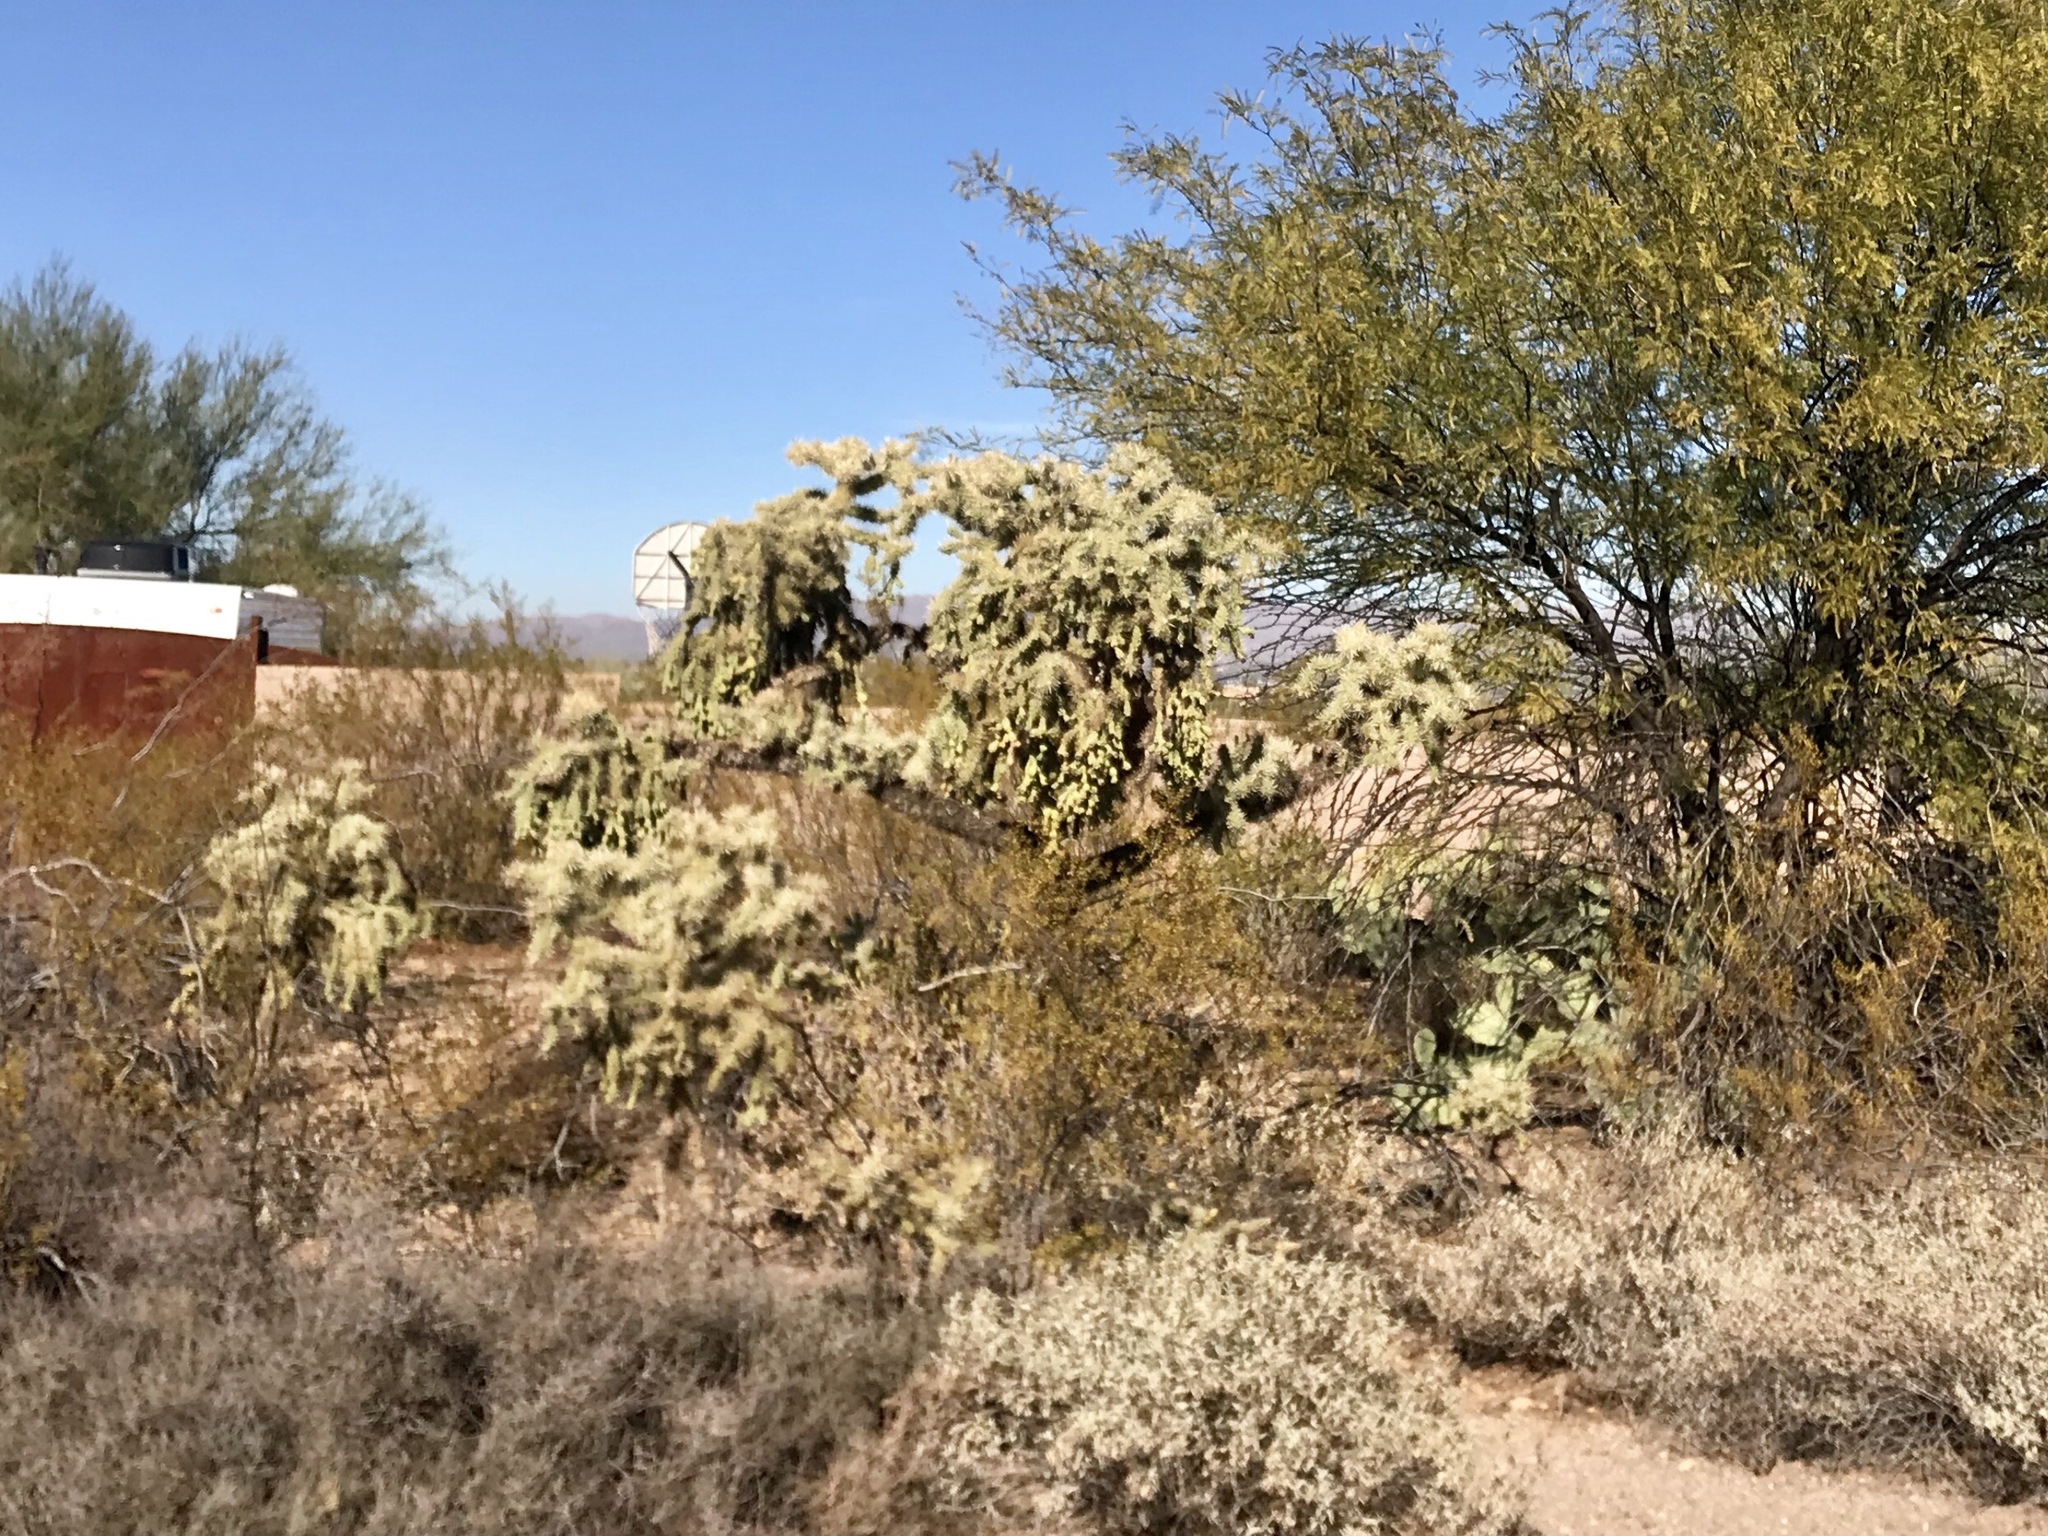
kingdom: Plantae
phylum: Tracheophyta
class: Magnoliopsida
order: Caryophyllales
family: Cactaceae
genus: Cylindropuntia
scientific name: Cylindropuntia fulgida
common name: Jumping cholla
